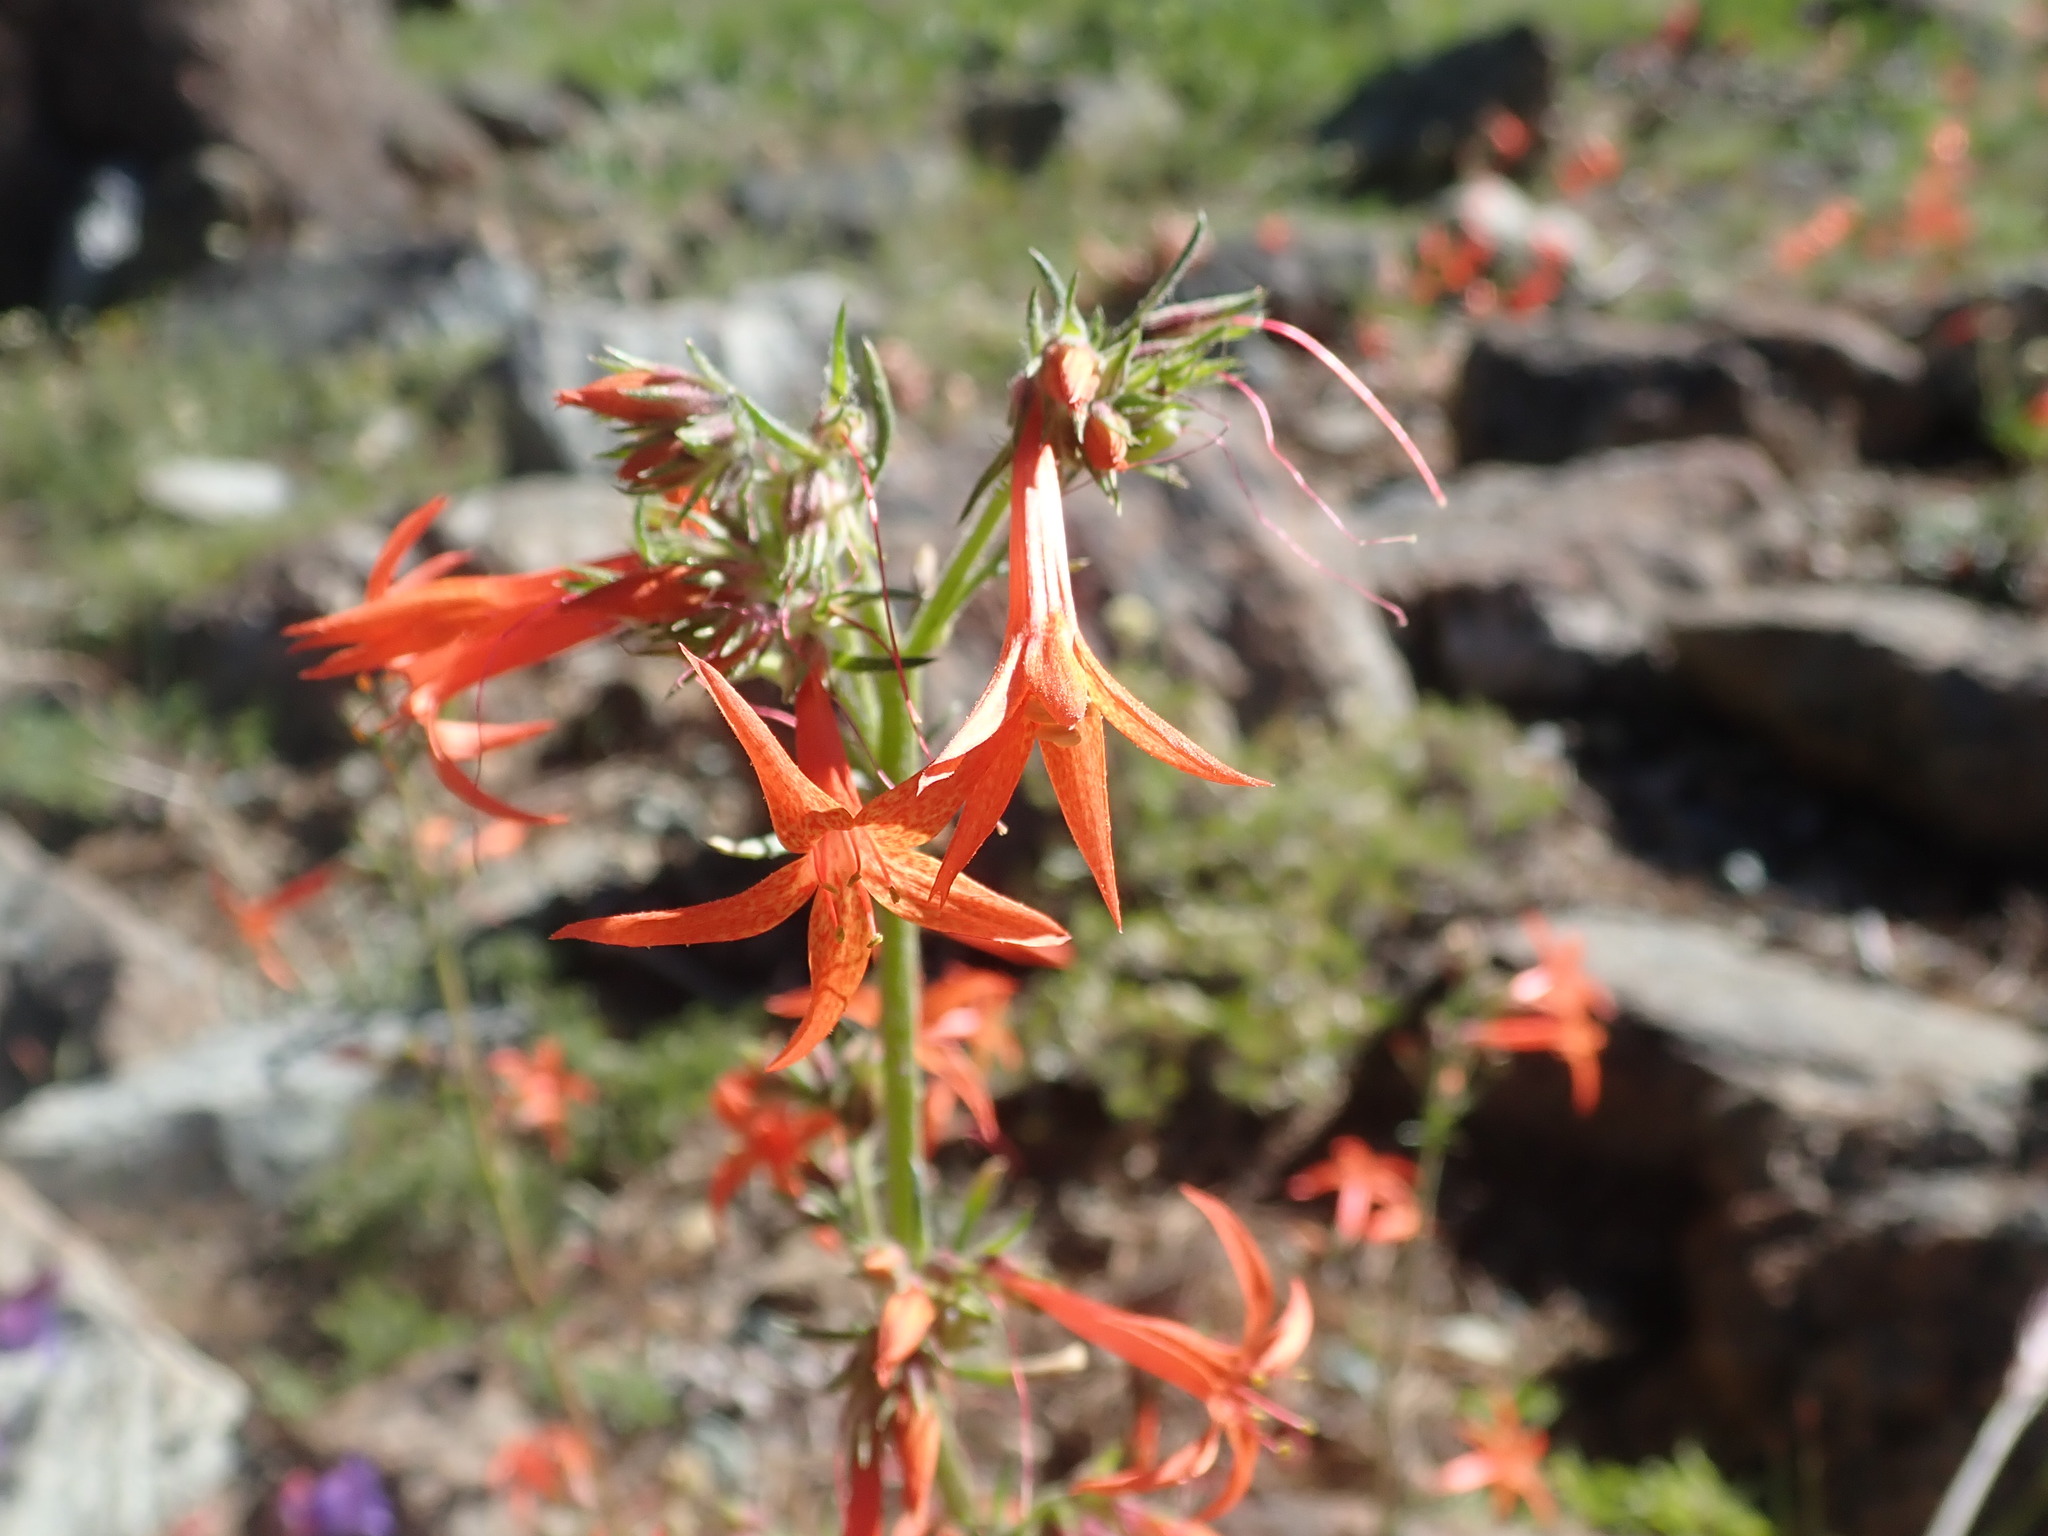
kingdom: Plantae
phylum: Tracheophyta
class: Magnoliopsida
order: Ericales
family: Polemoniaceae
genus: Ipomopsis
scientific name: Ipomopsis aggregata
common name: Scarlet gilia
